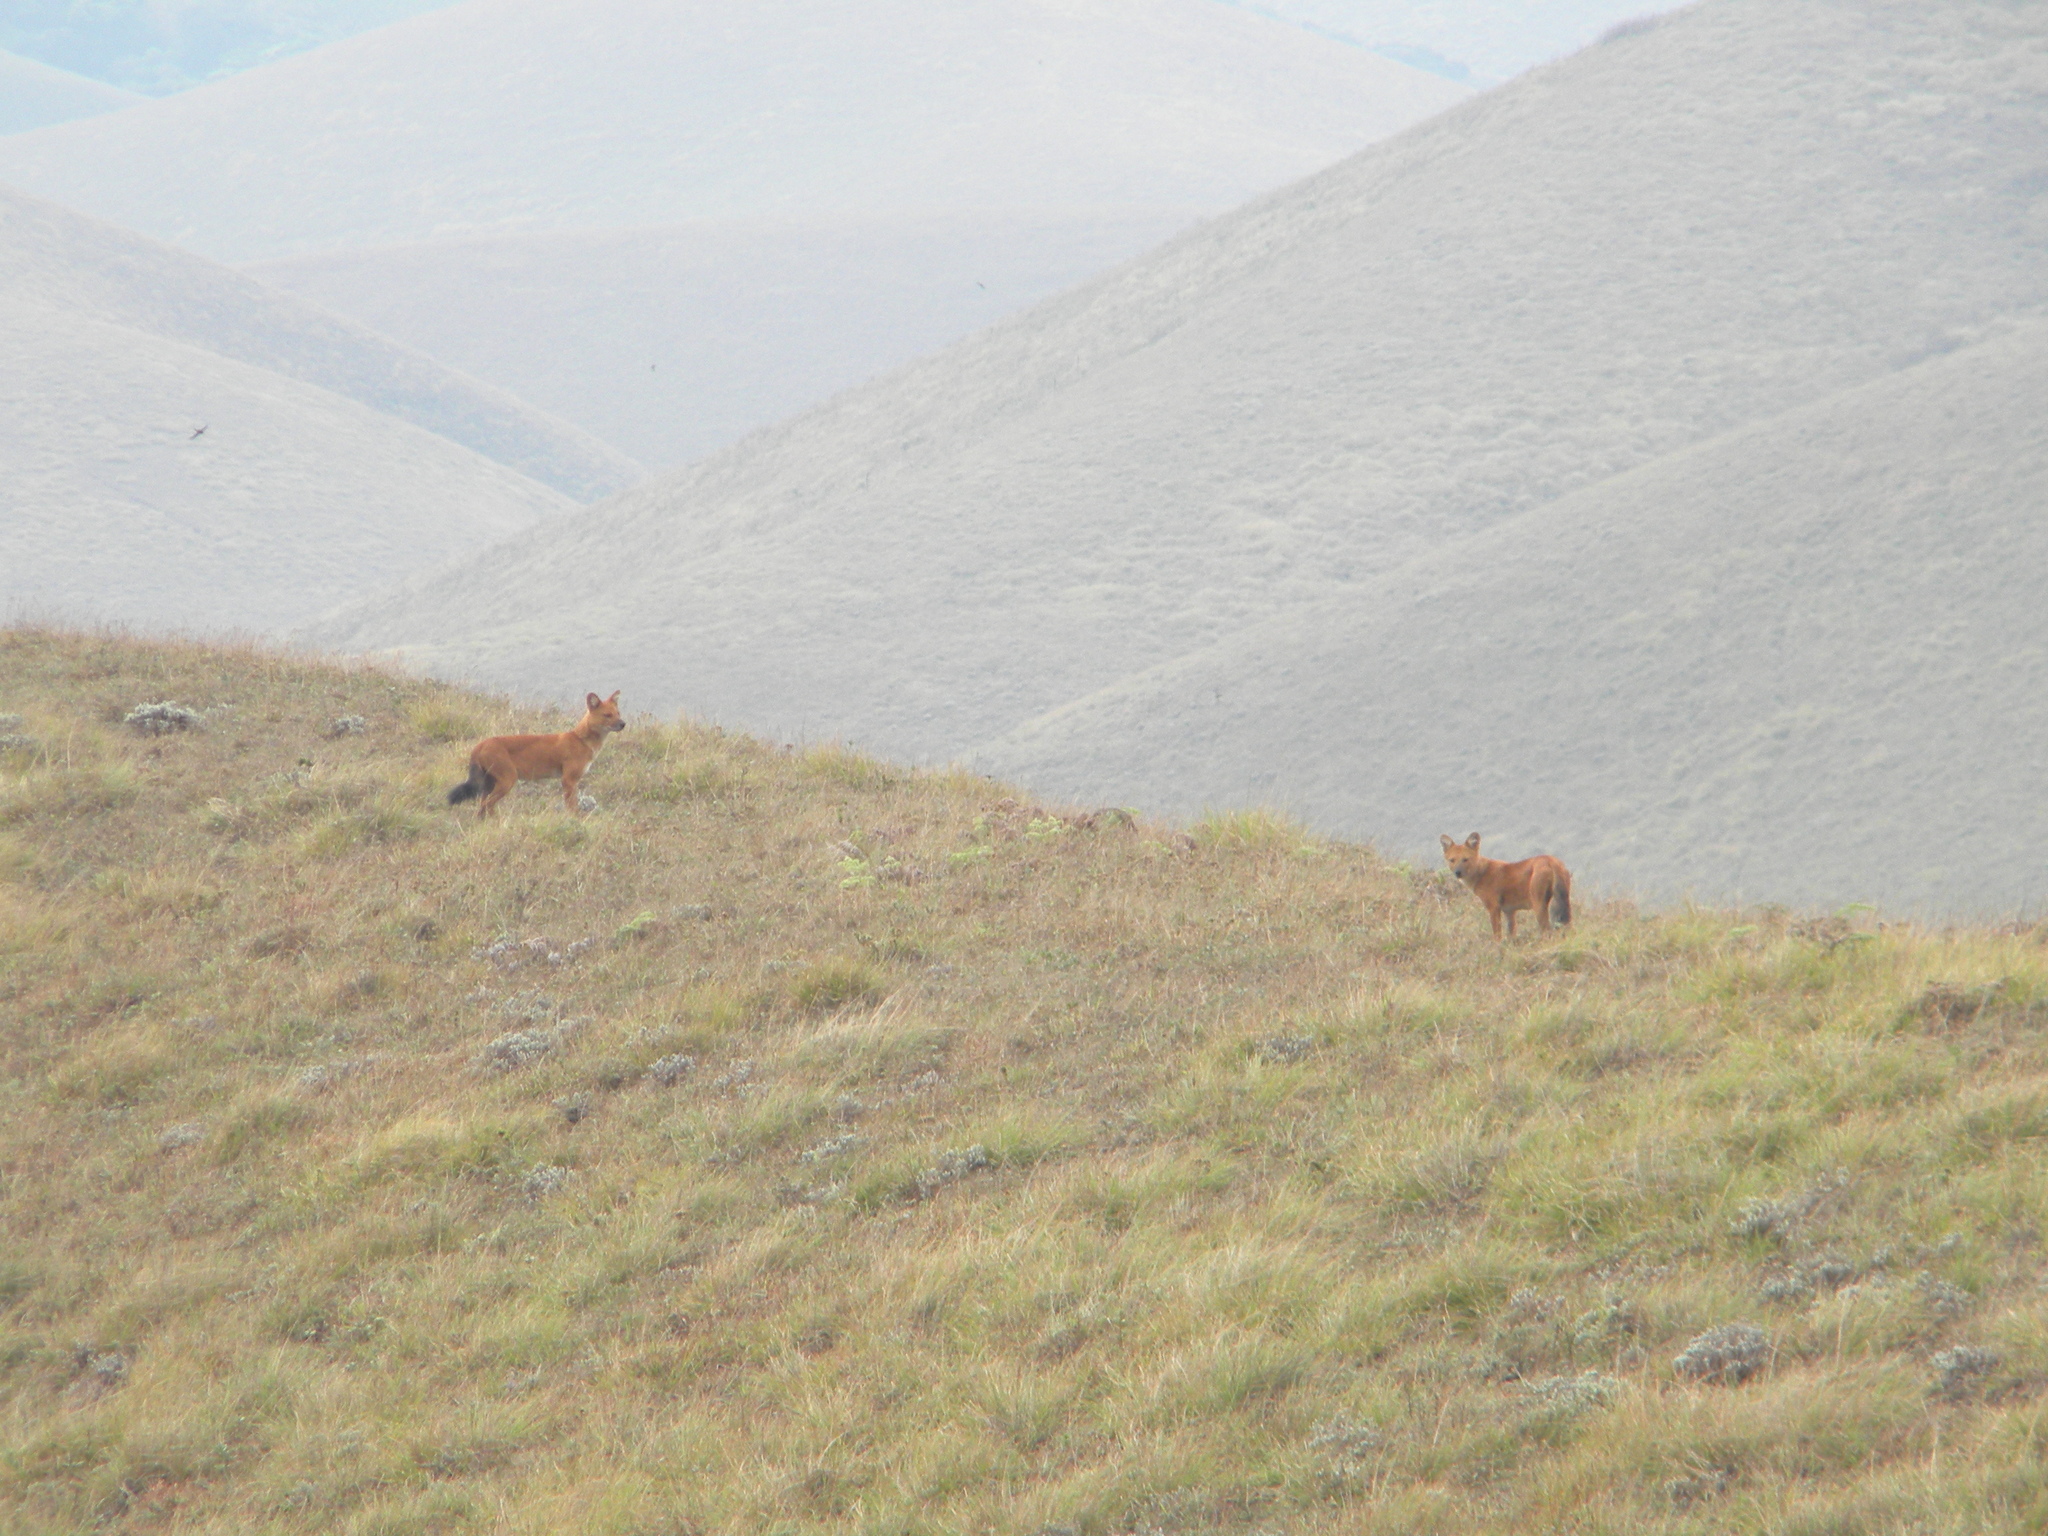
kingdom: Animalia
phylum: Chordata
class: Mammalia
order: Carnivora
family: Canidae
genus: Cuon
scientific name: Cuon alpinus
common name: Dhole
